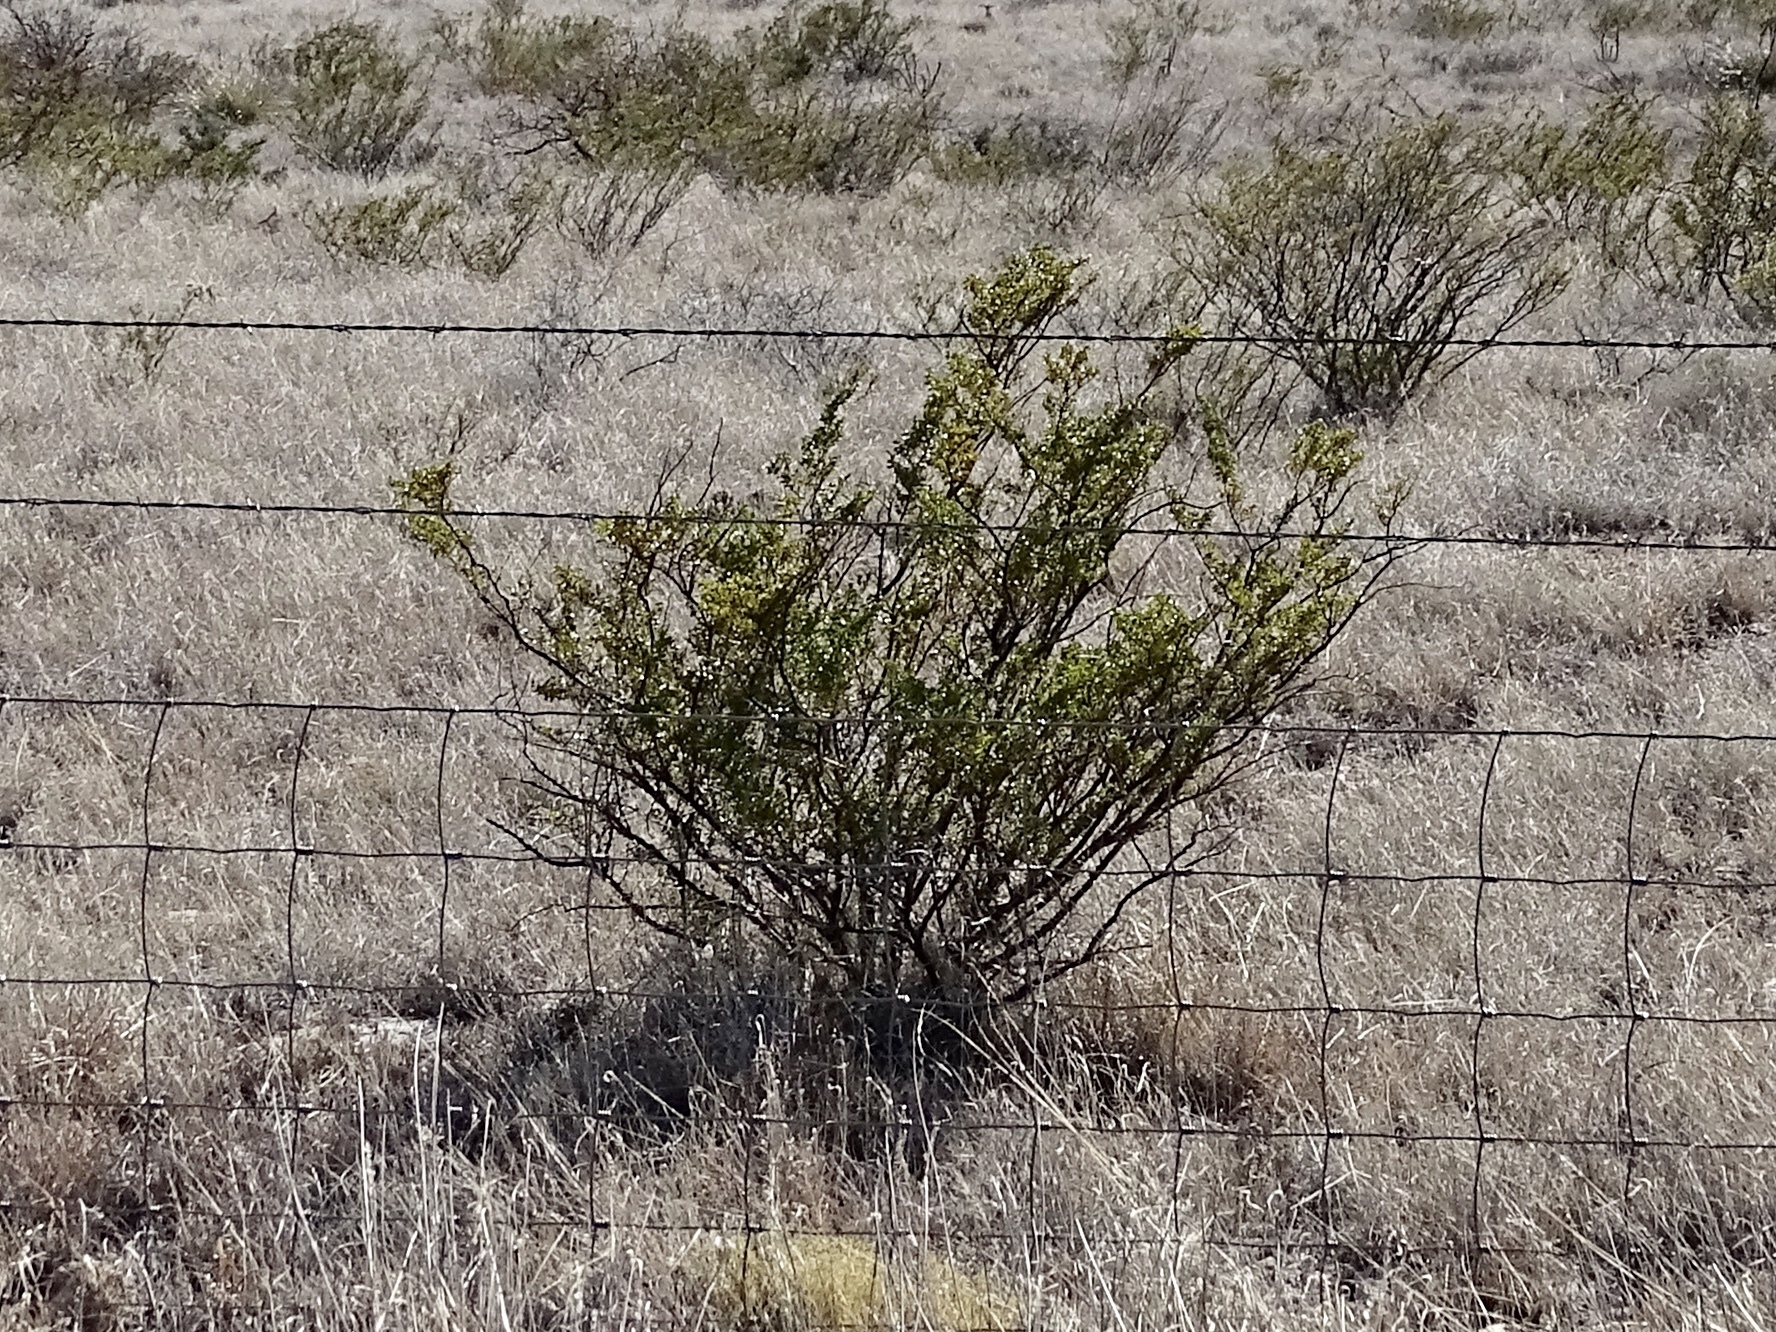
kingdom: Plantae
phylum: Tracheophyta
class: Magnoliopsida
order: Zygophyllales
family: Zygophyllaceae
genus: Larrea
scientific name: Larrea tridentata
